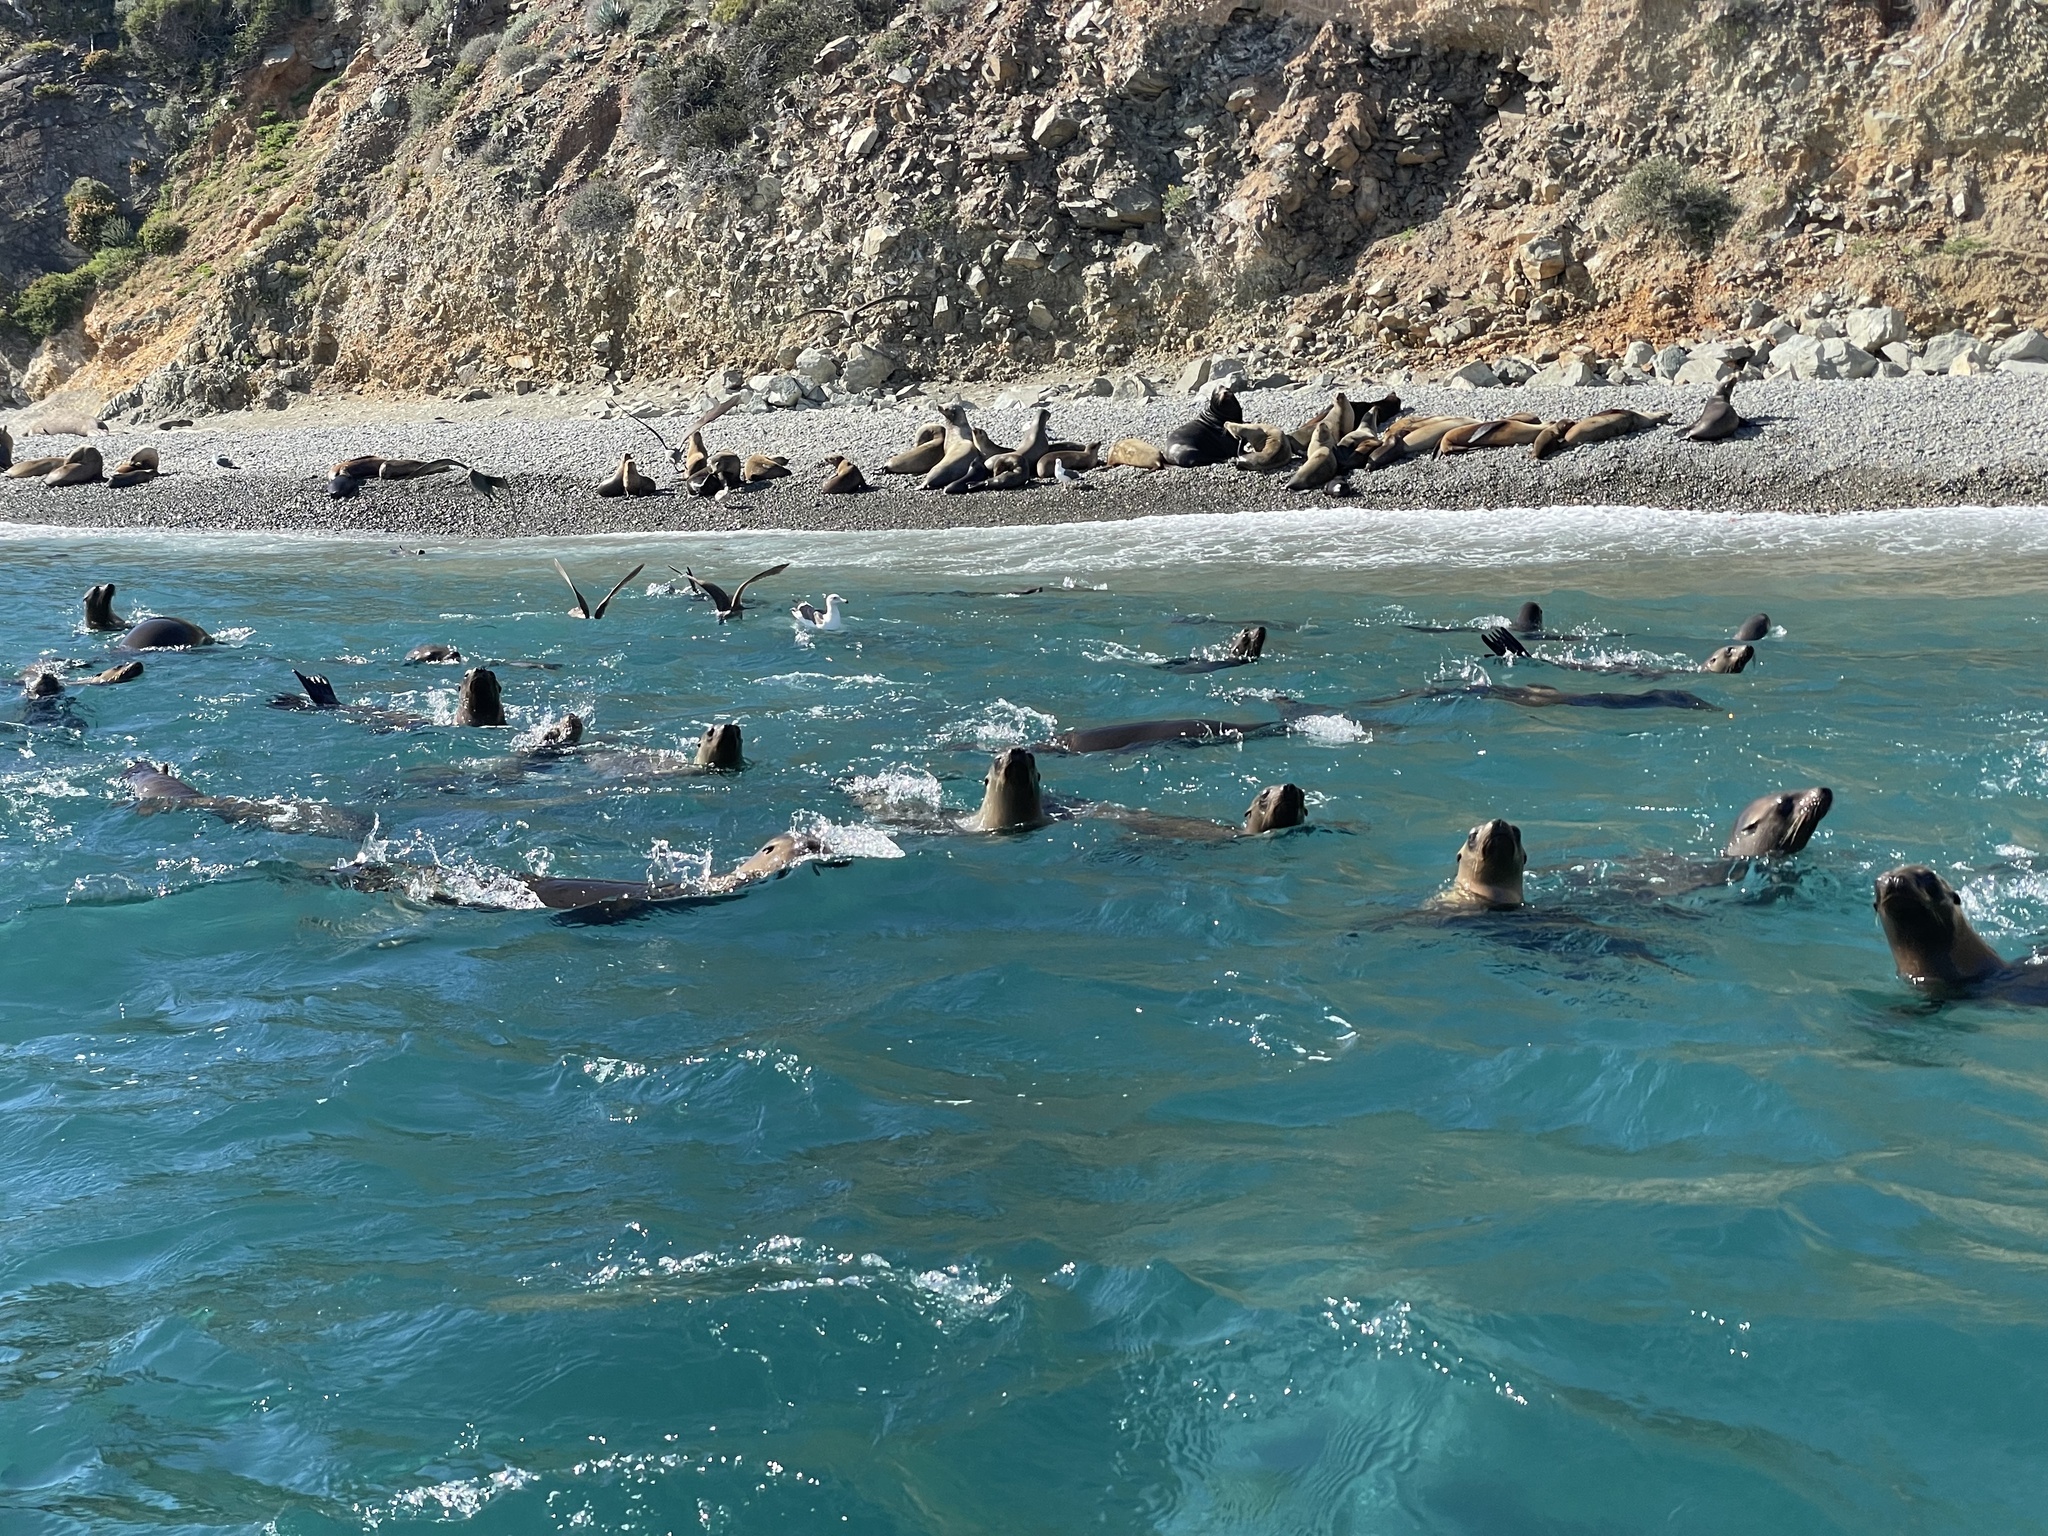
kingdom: Animalia
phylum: Chordata
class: Mammalia
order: Carnivora
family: Otariidae
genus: Zalophus
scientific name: Zalophus californianus
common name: California sea lion
